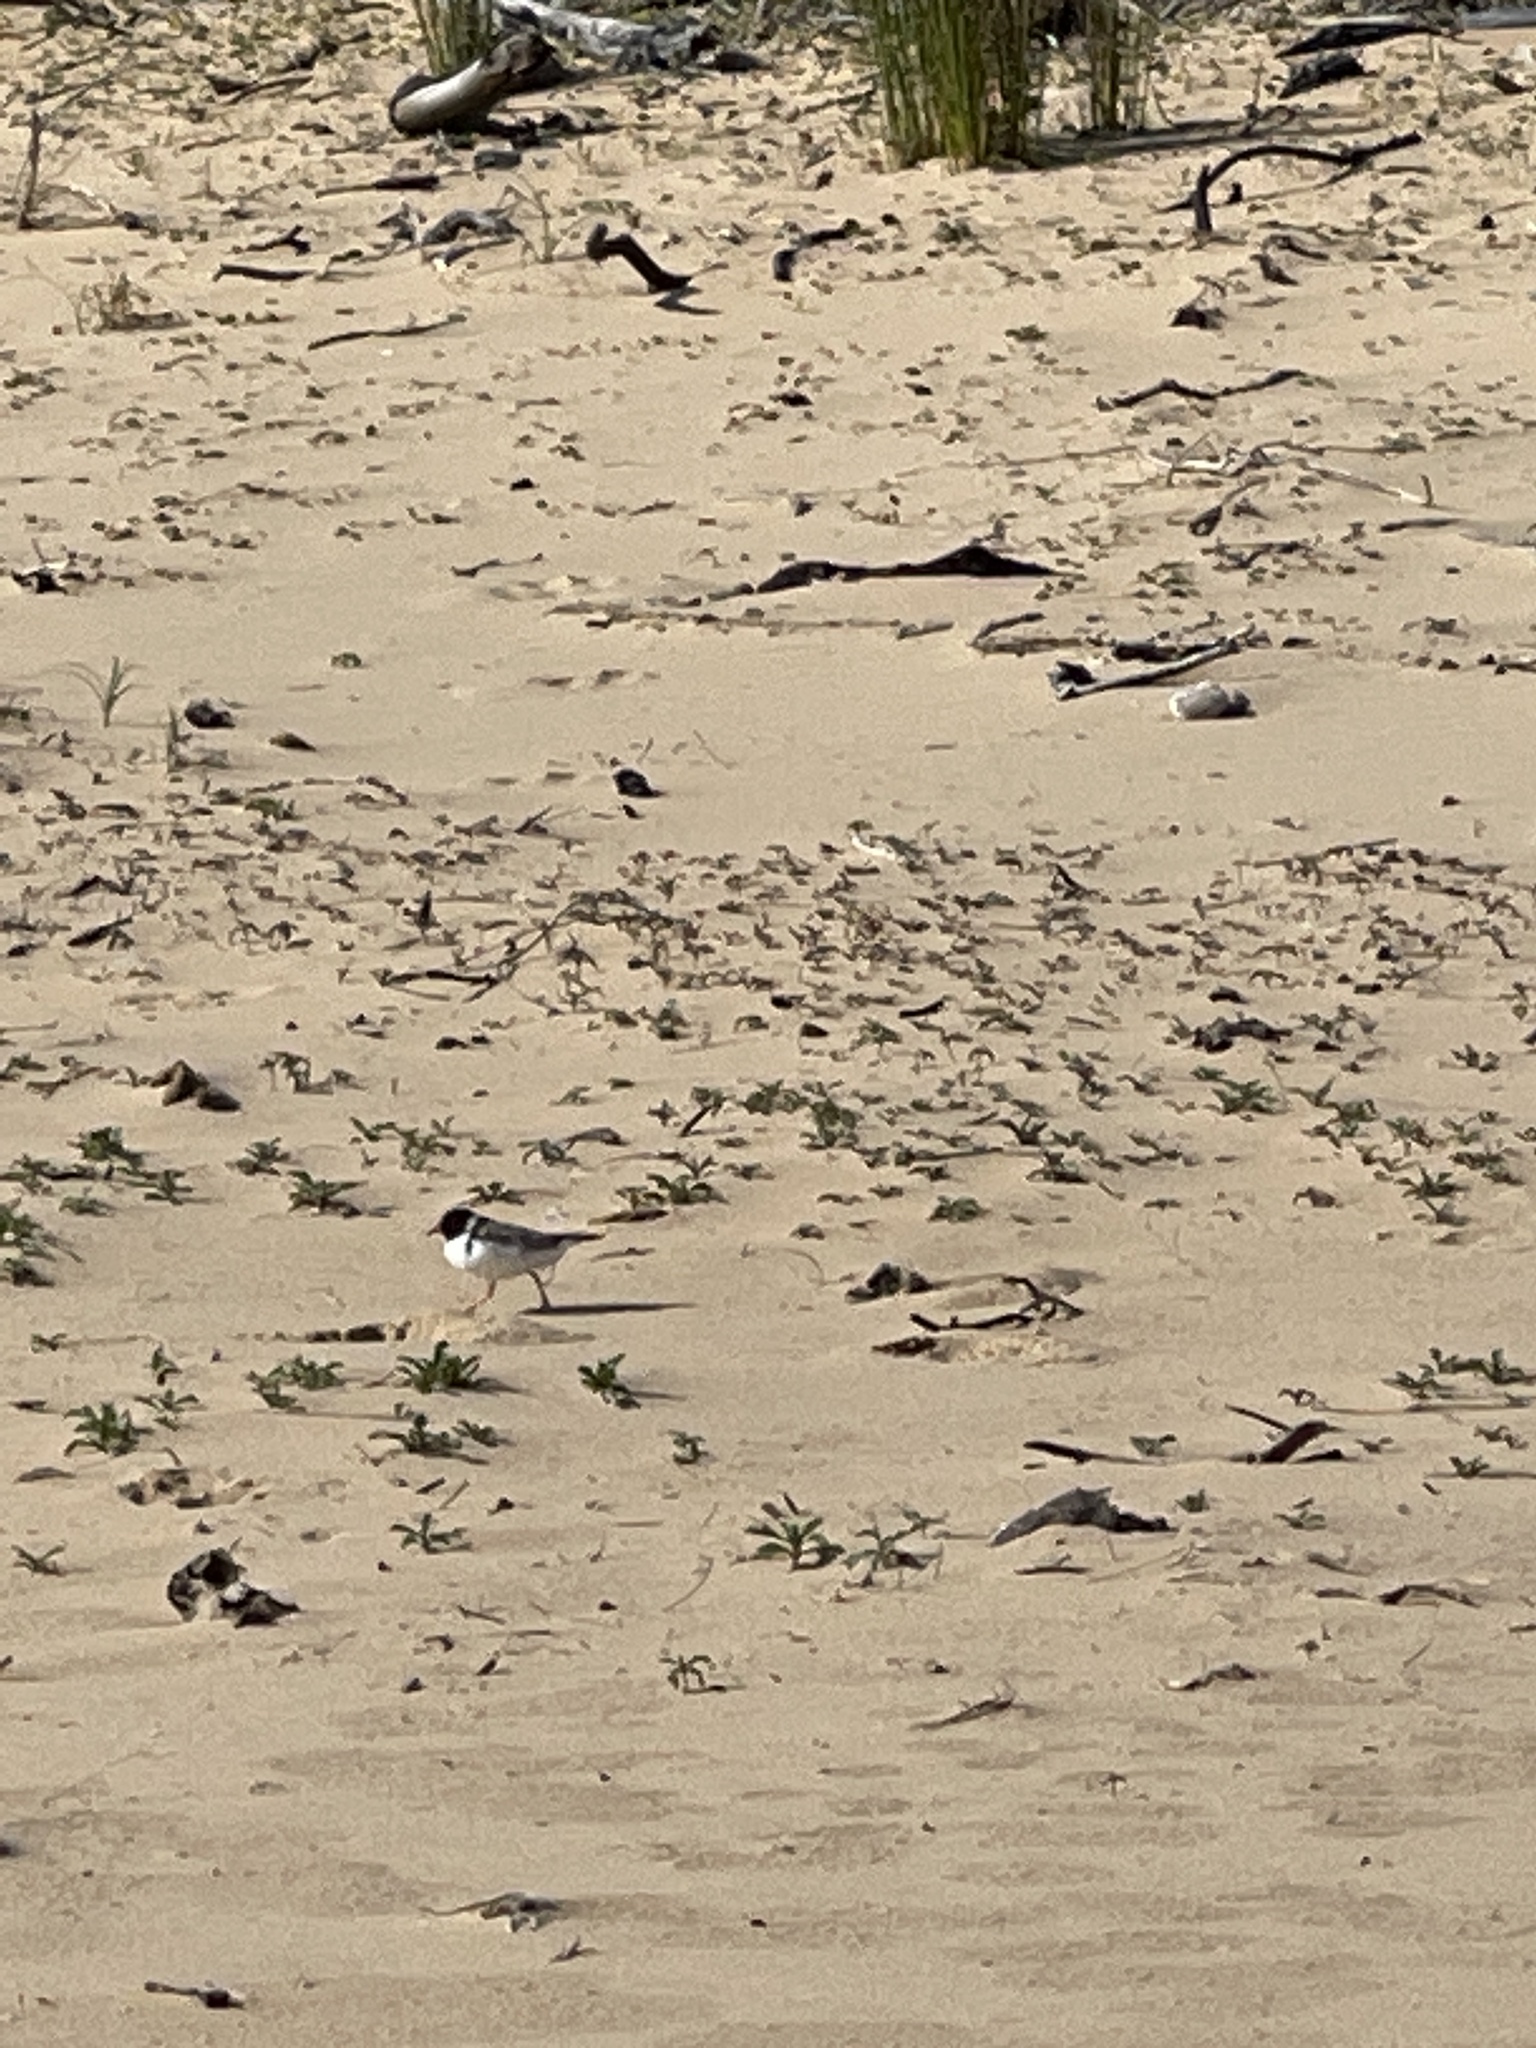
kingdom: Animalia
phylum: Chordata
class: Aves
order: Charadriiformes
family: Charadriidae
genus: Thinornis
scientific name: Thinornis cucullatus
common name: Hooded dotterel
